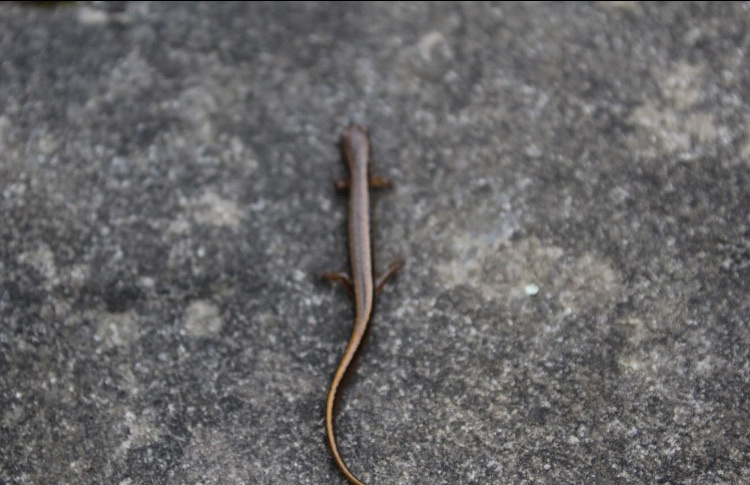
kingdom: Animalia
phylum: Chordata
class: Amphibia
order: Caudata
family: Plethodontidae
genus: Eurycea
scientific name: Eurycea cirrigera
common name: Southern two-lined salamander
